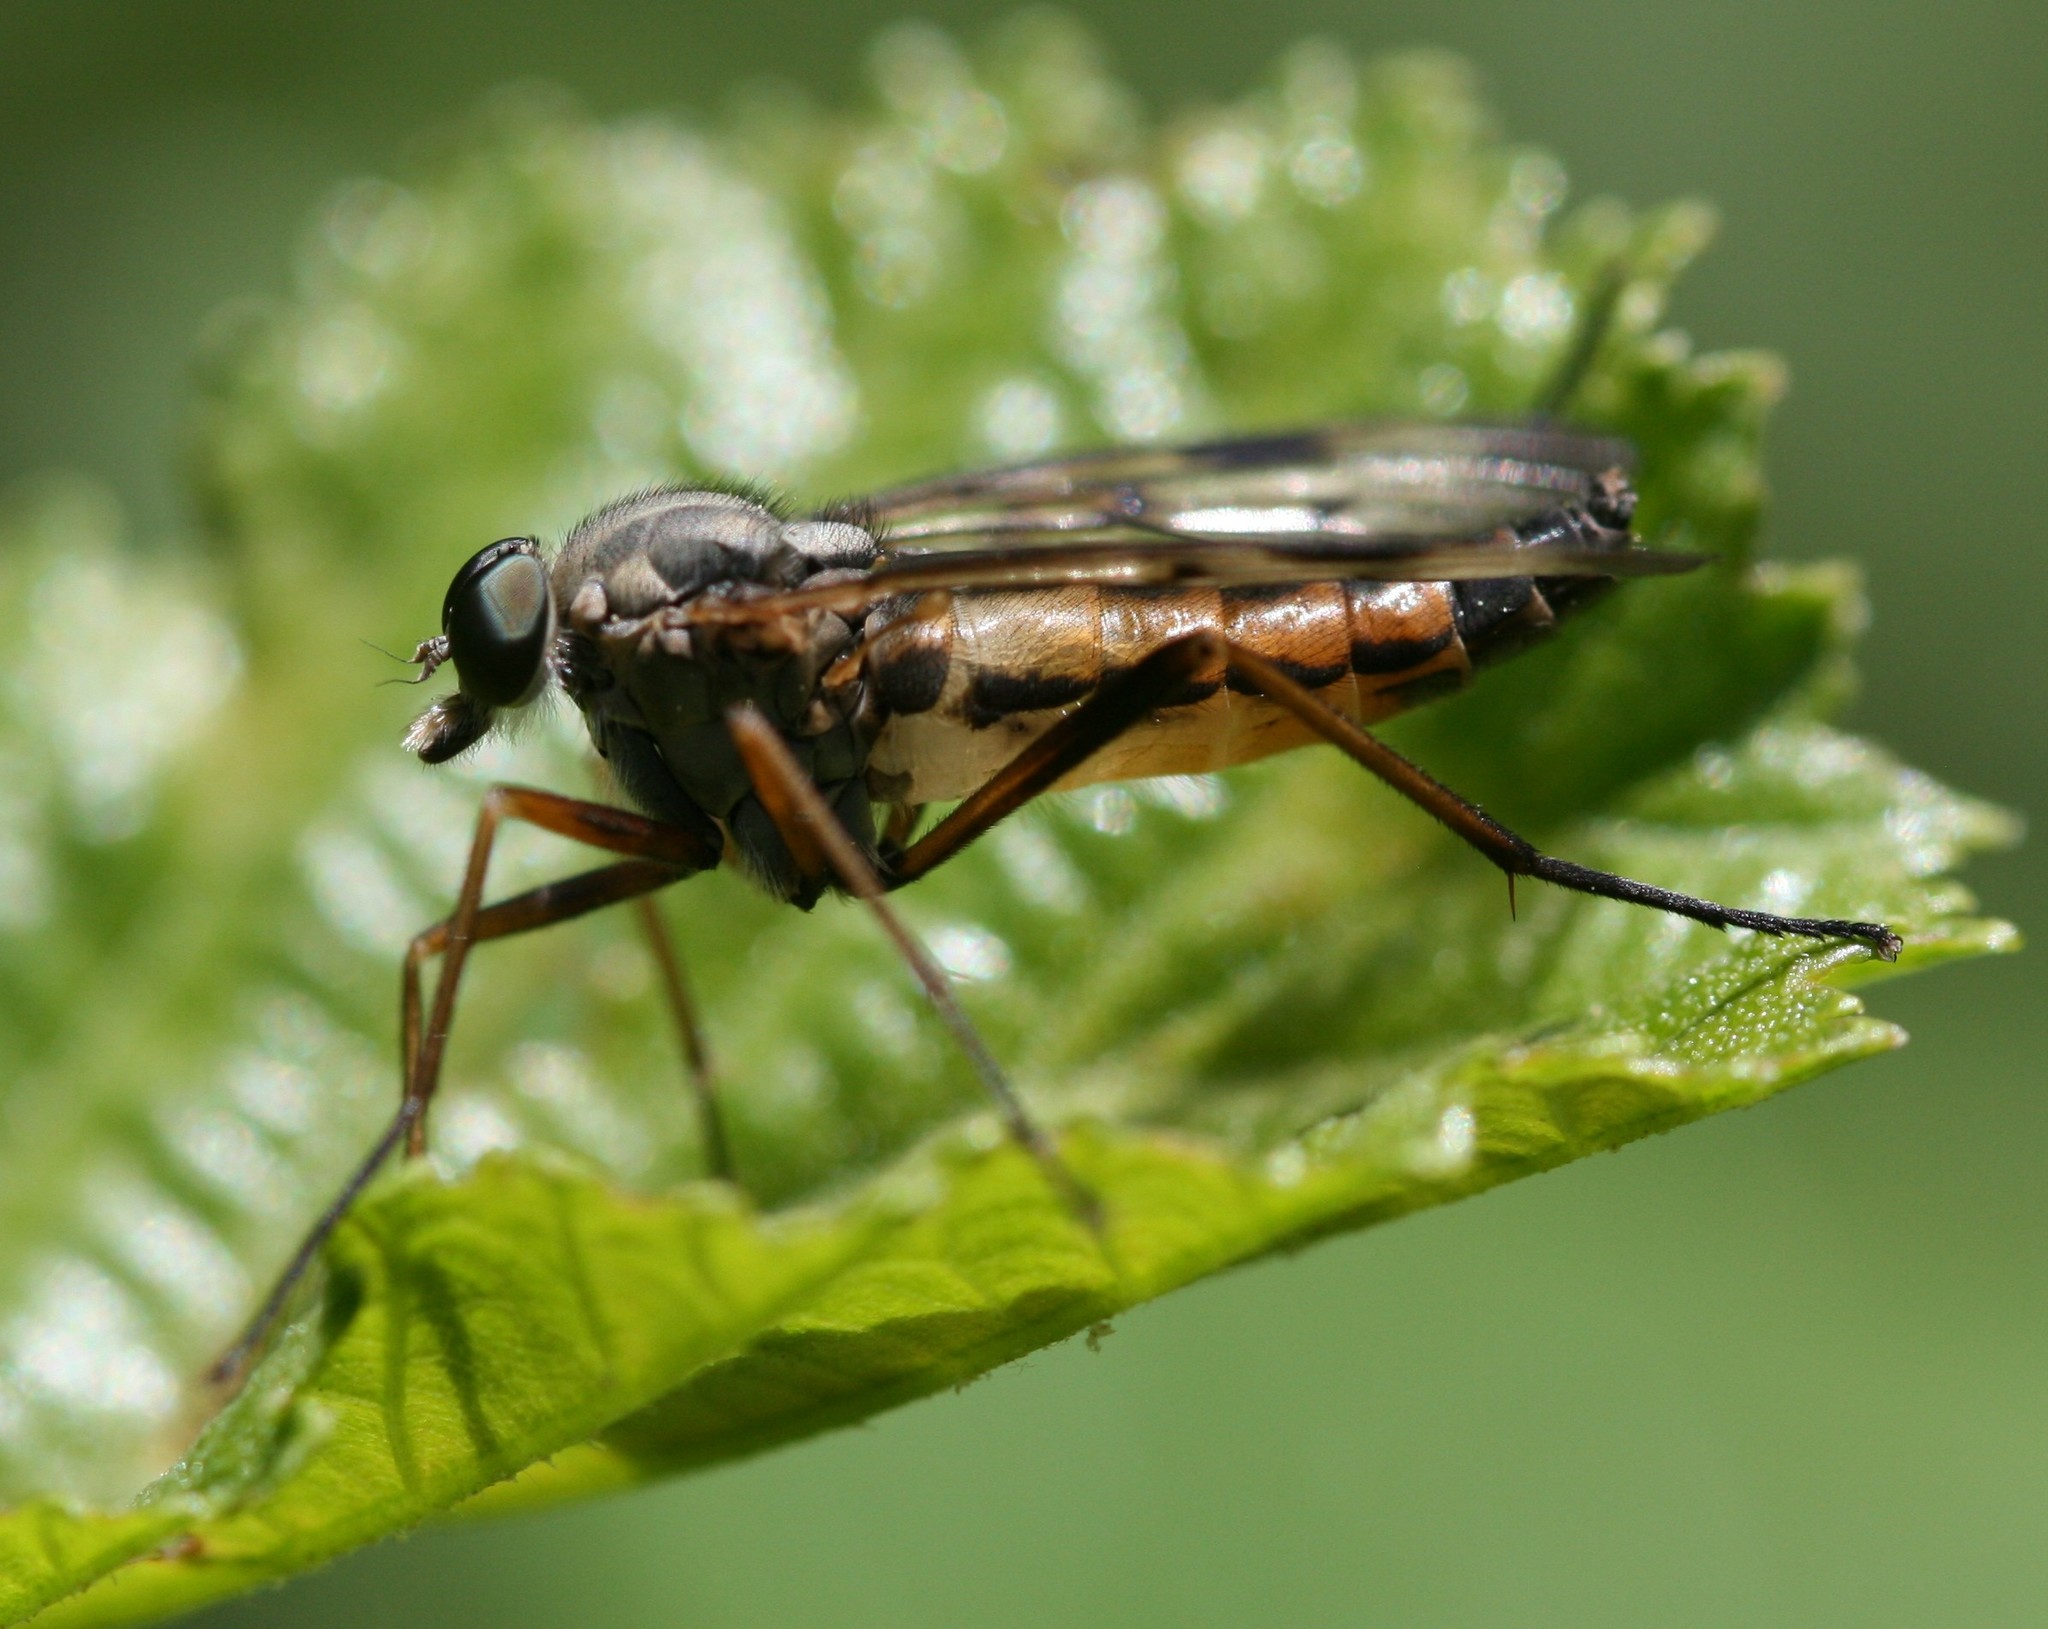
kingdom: Animalia
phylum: Arthropoda
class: Insecta
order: Diptera
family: Rhagionidae
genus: Rhagio
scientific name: Rhagio scolopacea
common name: Downlooker snipefly
